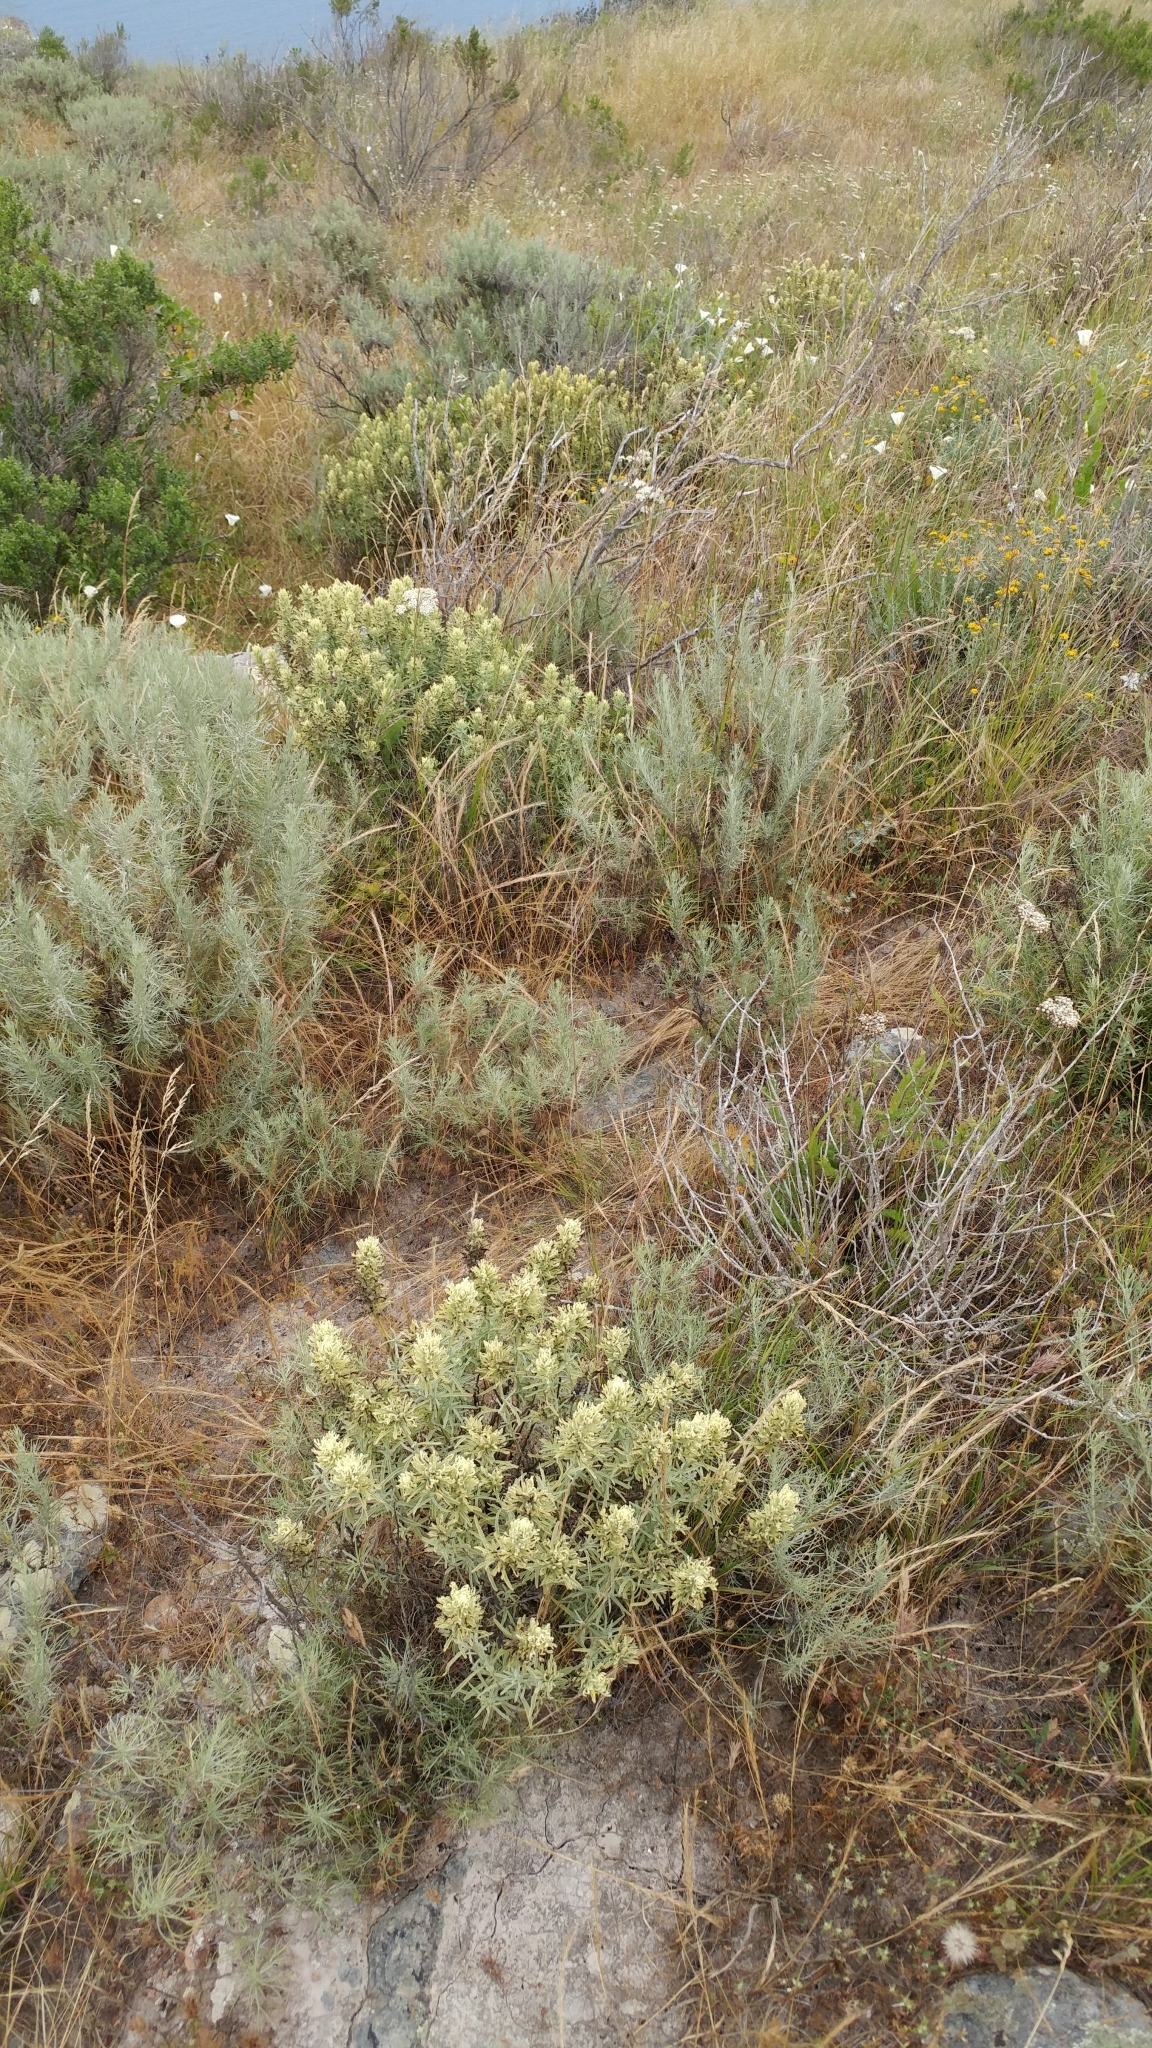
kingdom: Plantae
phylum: Tracheophyta
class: Magnoliopsida
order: Lamiales
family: Orobanchaceae
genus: Castilleja
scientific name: Castilleja grisea
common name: San clemente island indian paintbrush
